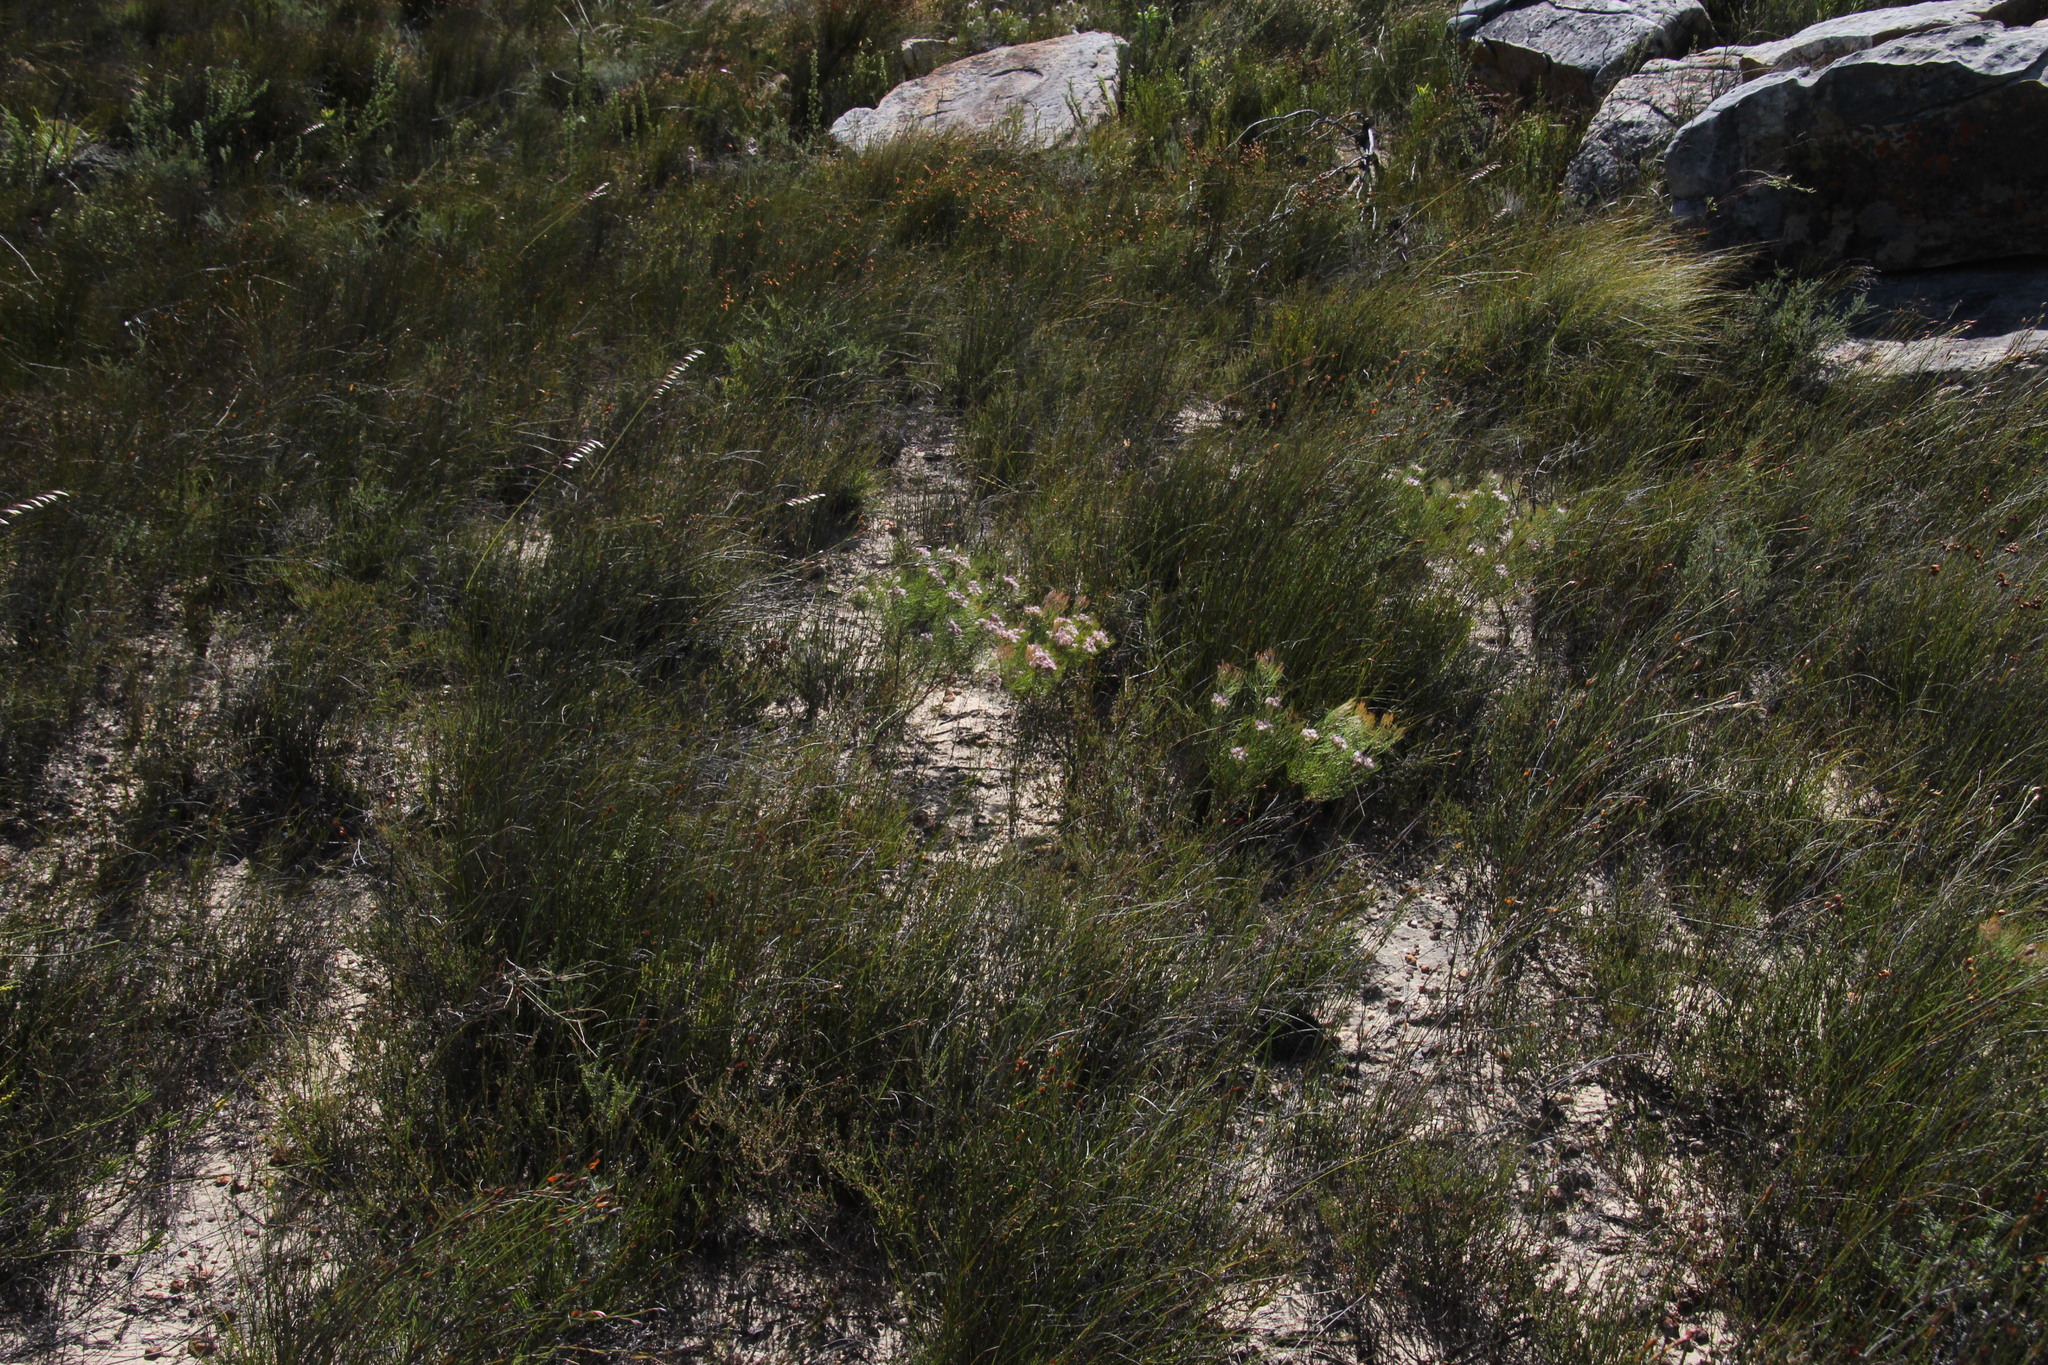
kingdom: Plantae
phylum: Tracheophyta
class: Magnoliopsida
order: Proteales
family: Proteaceae
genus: Serruria
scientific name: Serruria fasciflora
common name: Common pin spiderhead
